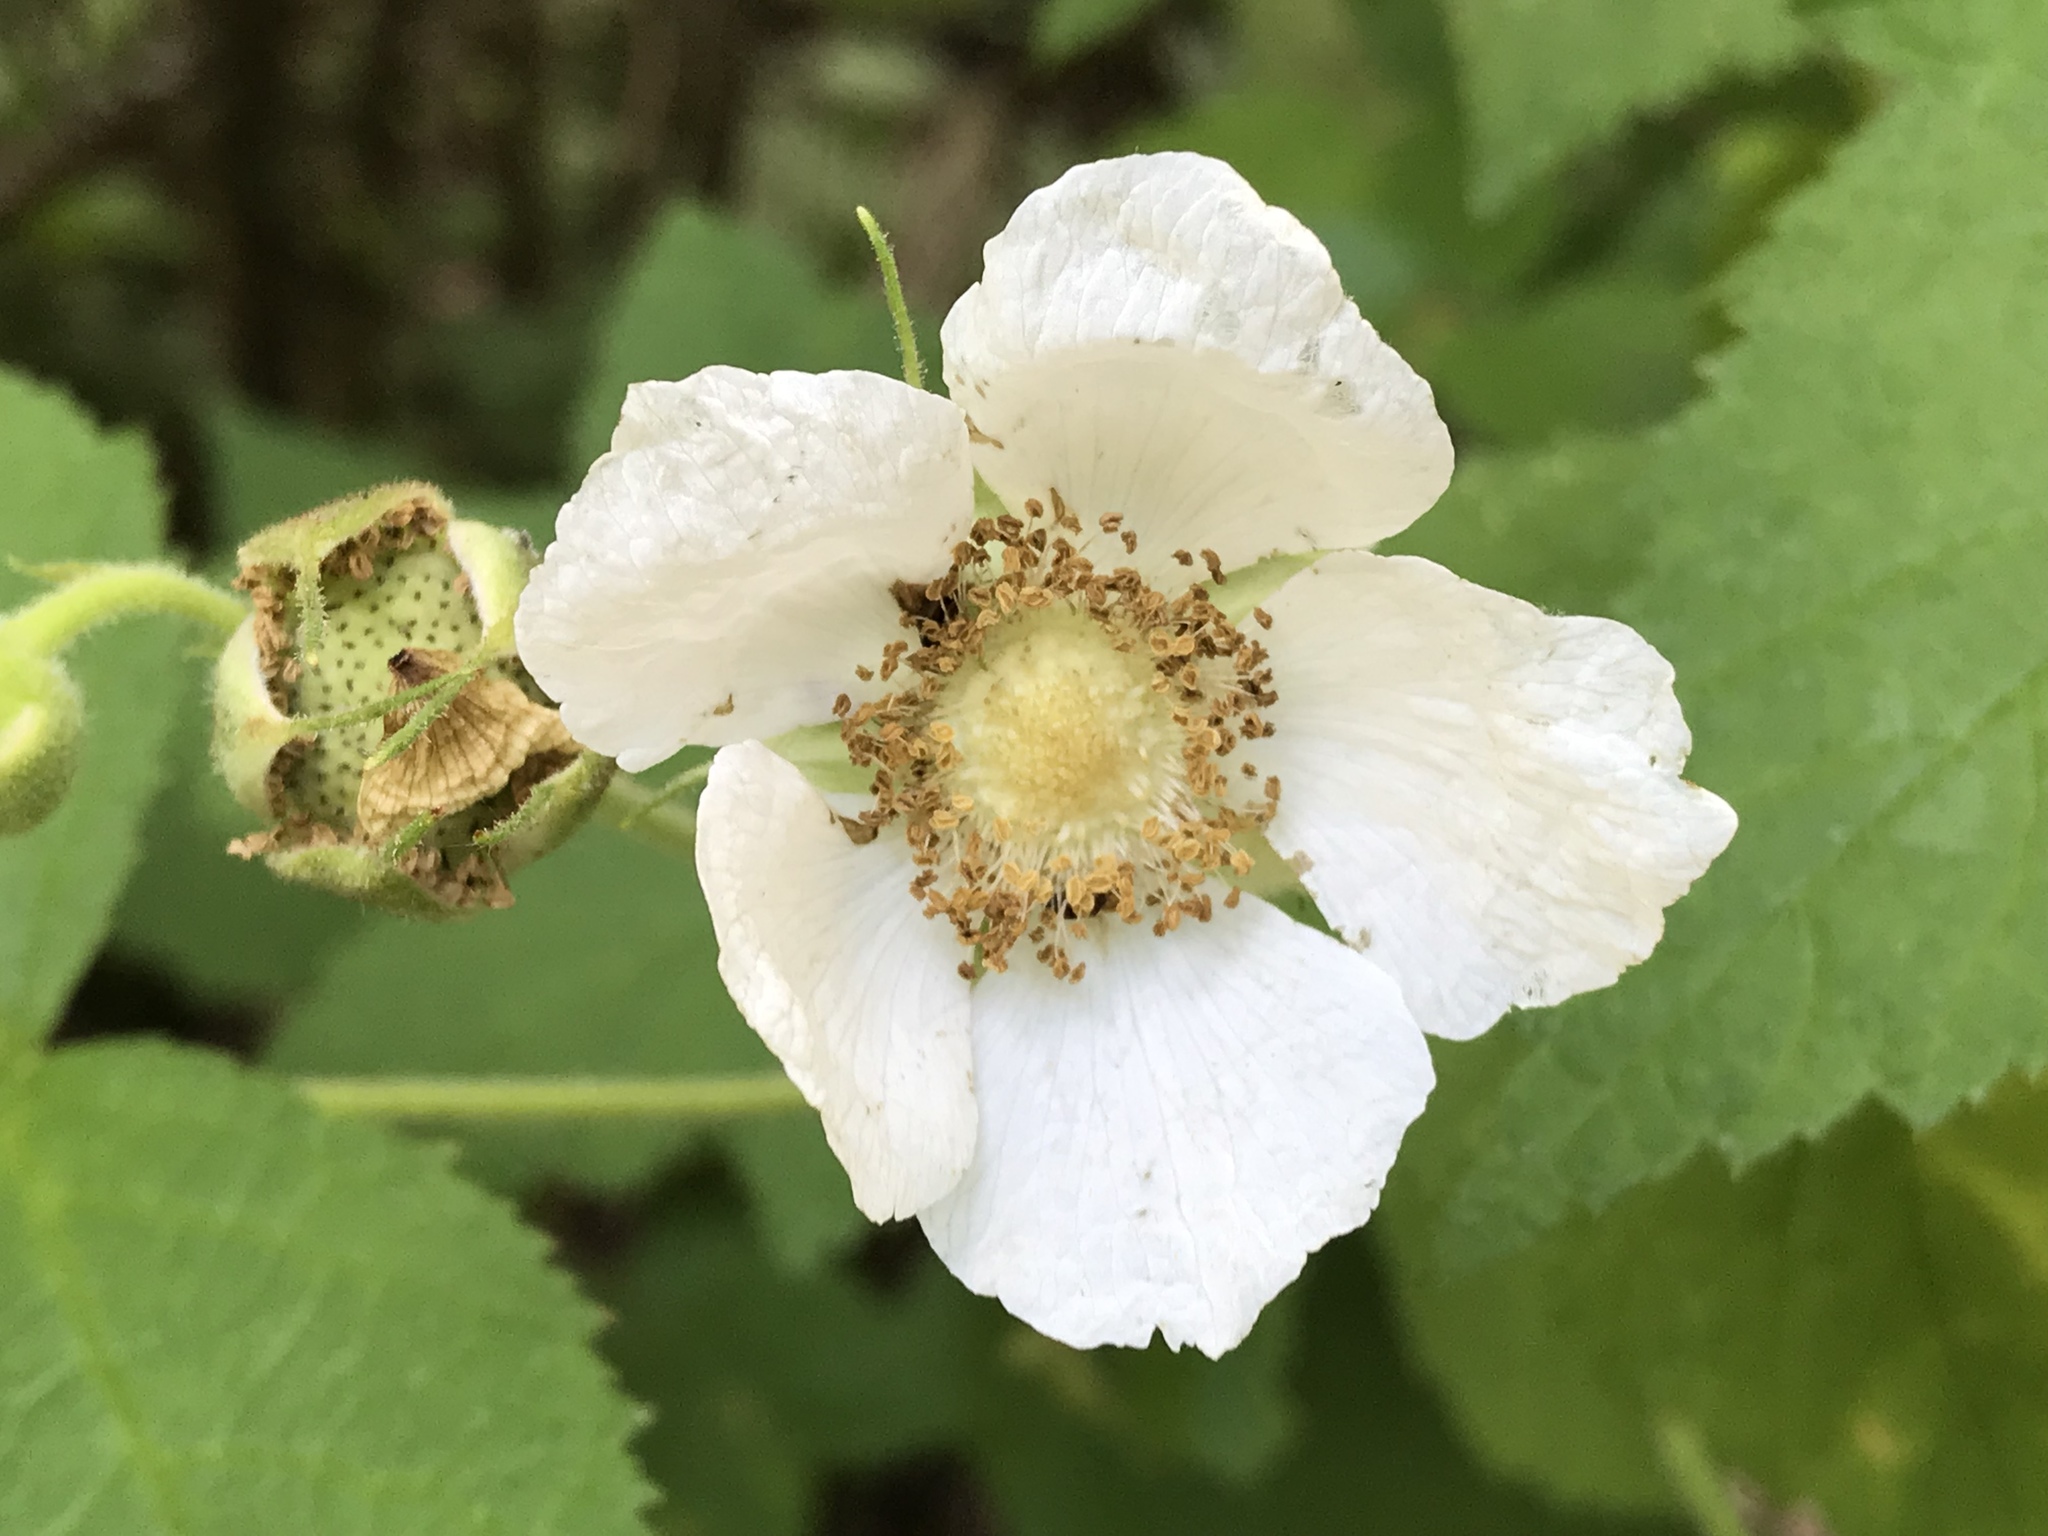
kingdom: Plantae
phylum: Tracheophyta
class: Magnoliopsida
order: Rosales
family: Rosaceae
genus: Rubus
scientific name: Rubus parviflorus
